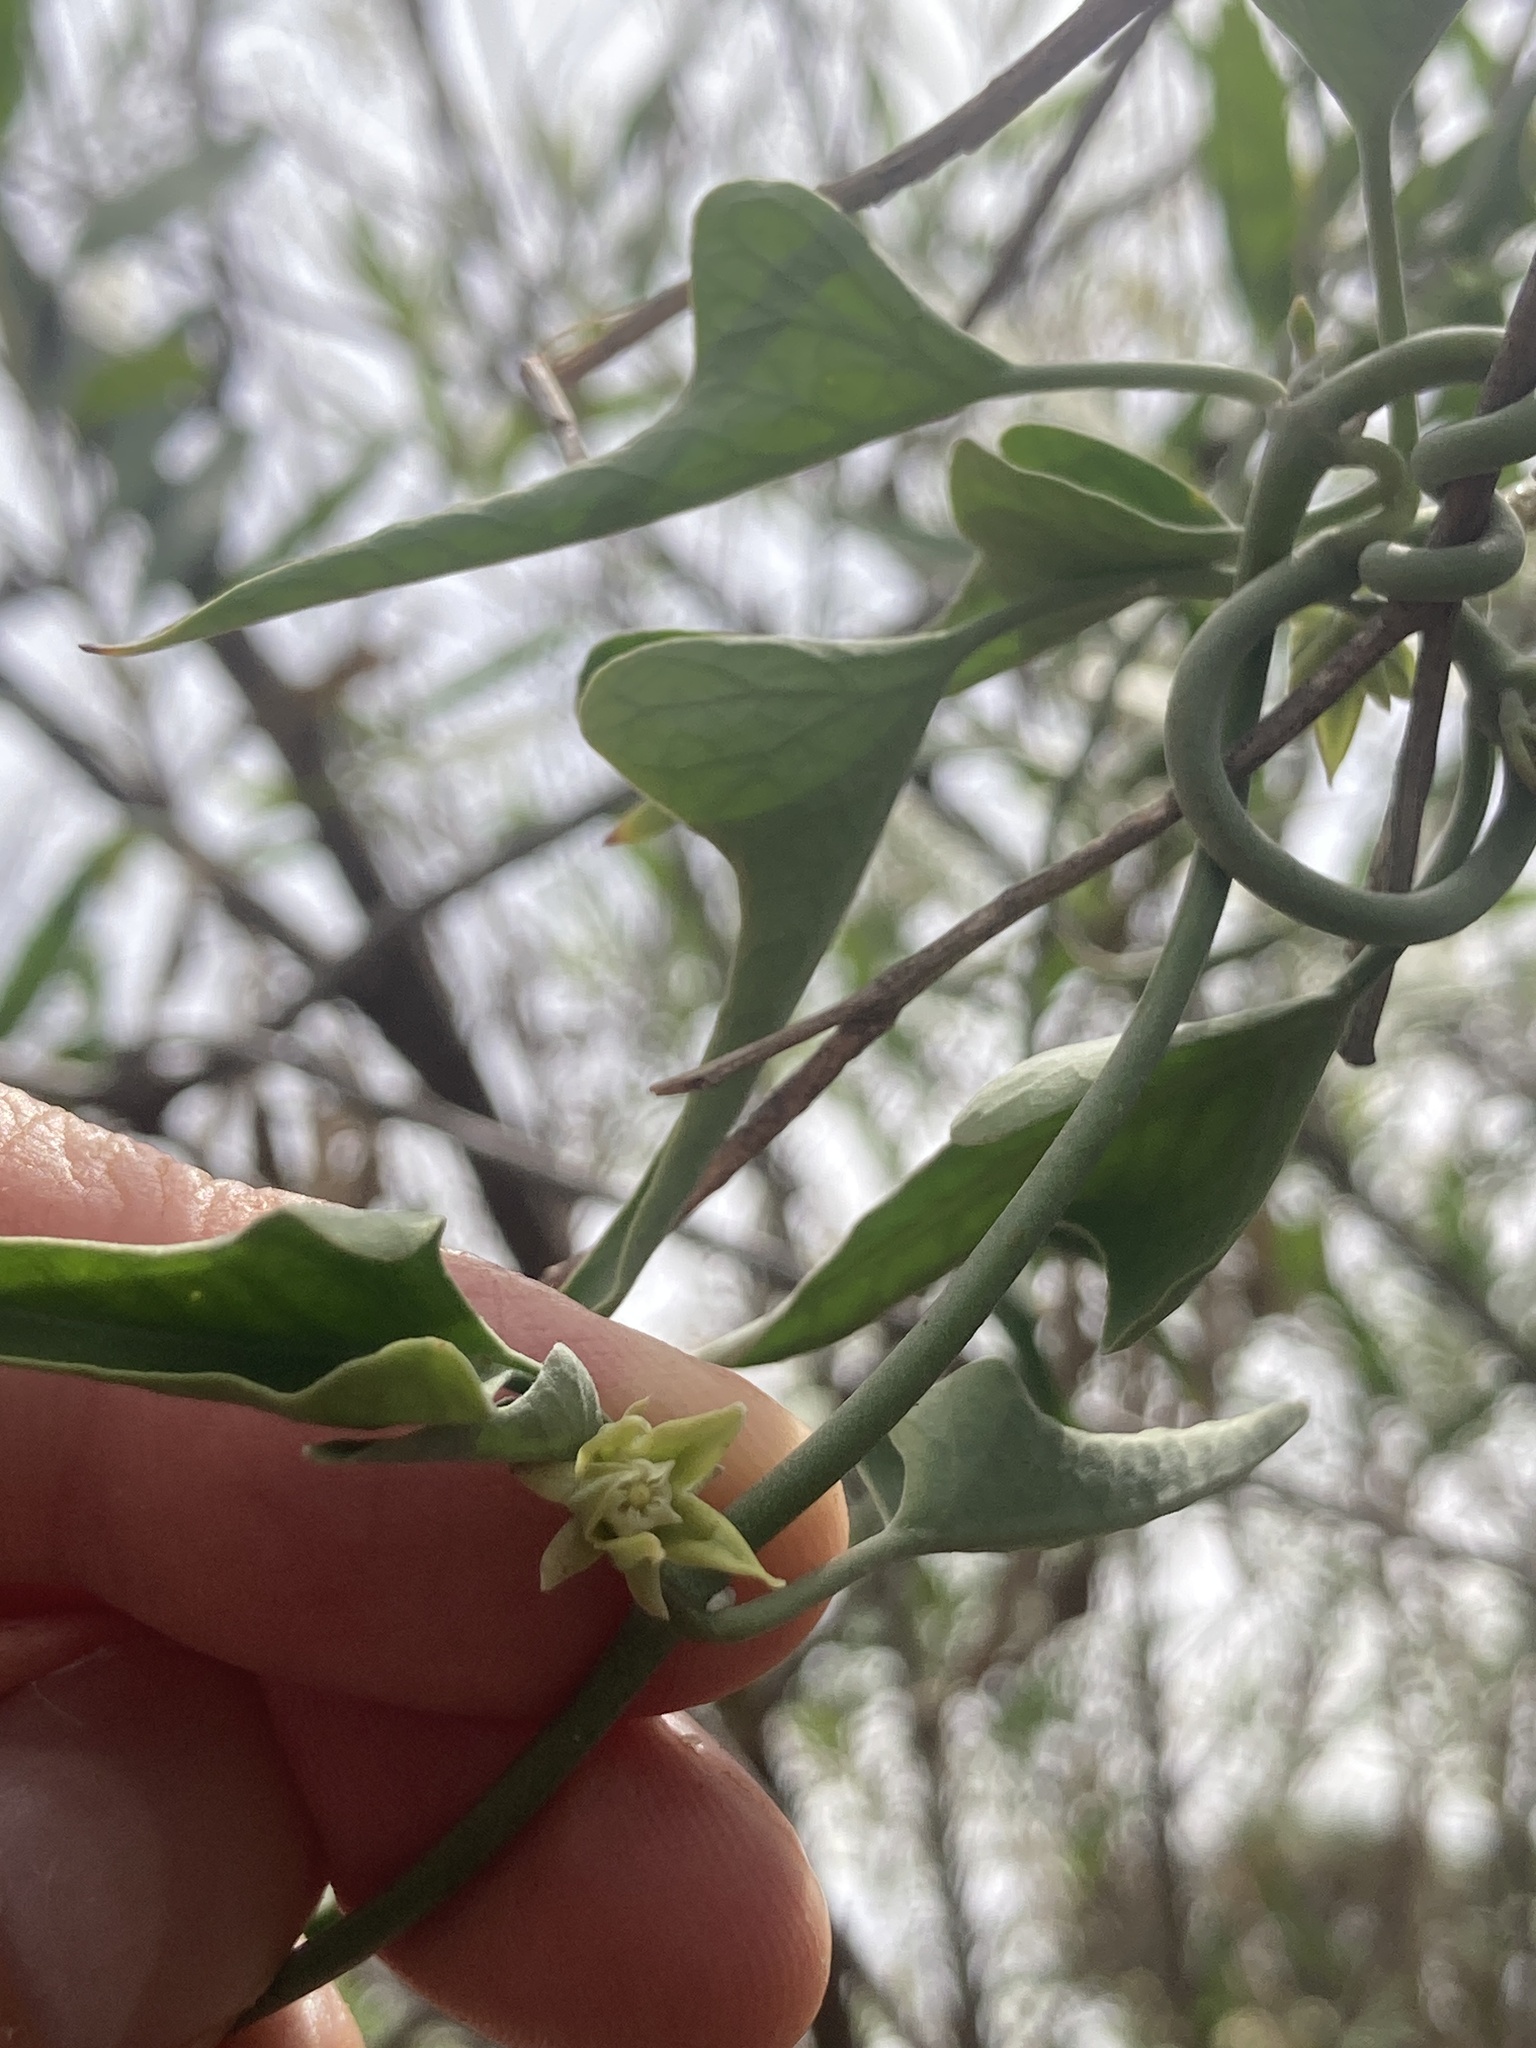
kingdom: Plantae
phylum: Tracheophyta
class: Magnoliopsida
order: Gentianales
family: Apocynaceae
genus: Araujia
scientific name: Araujia brachystephana
